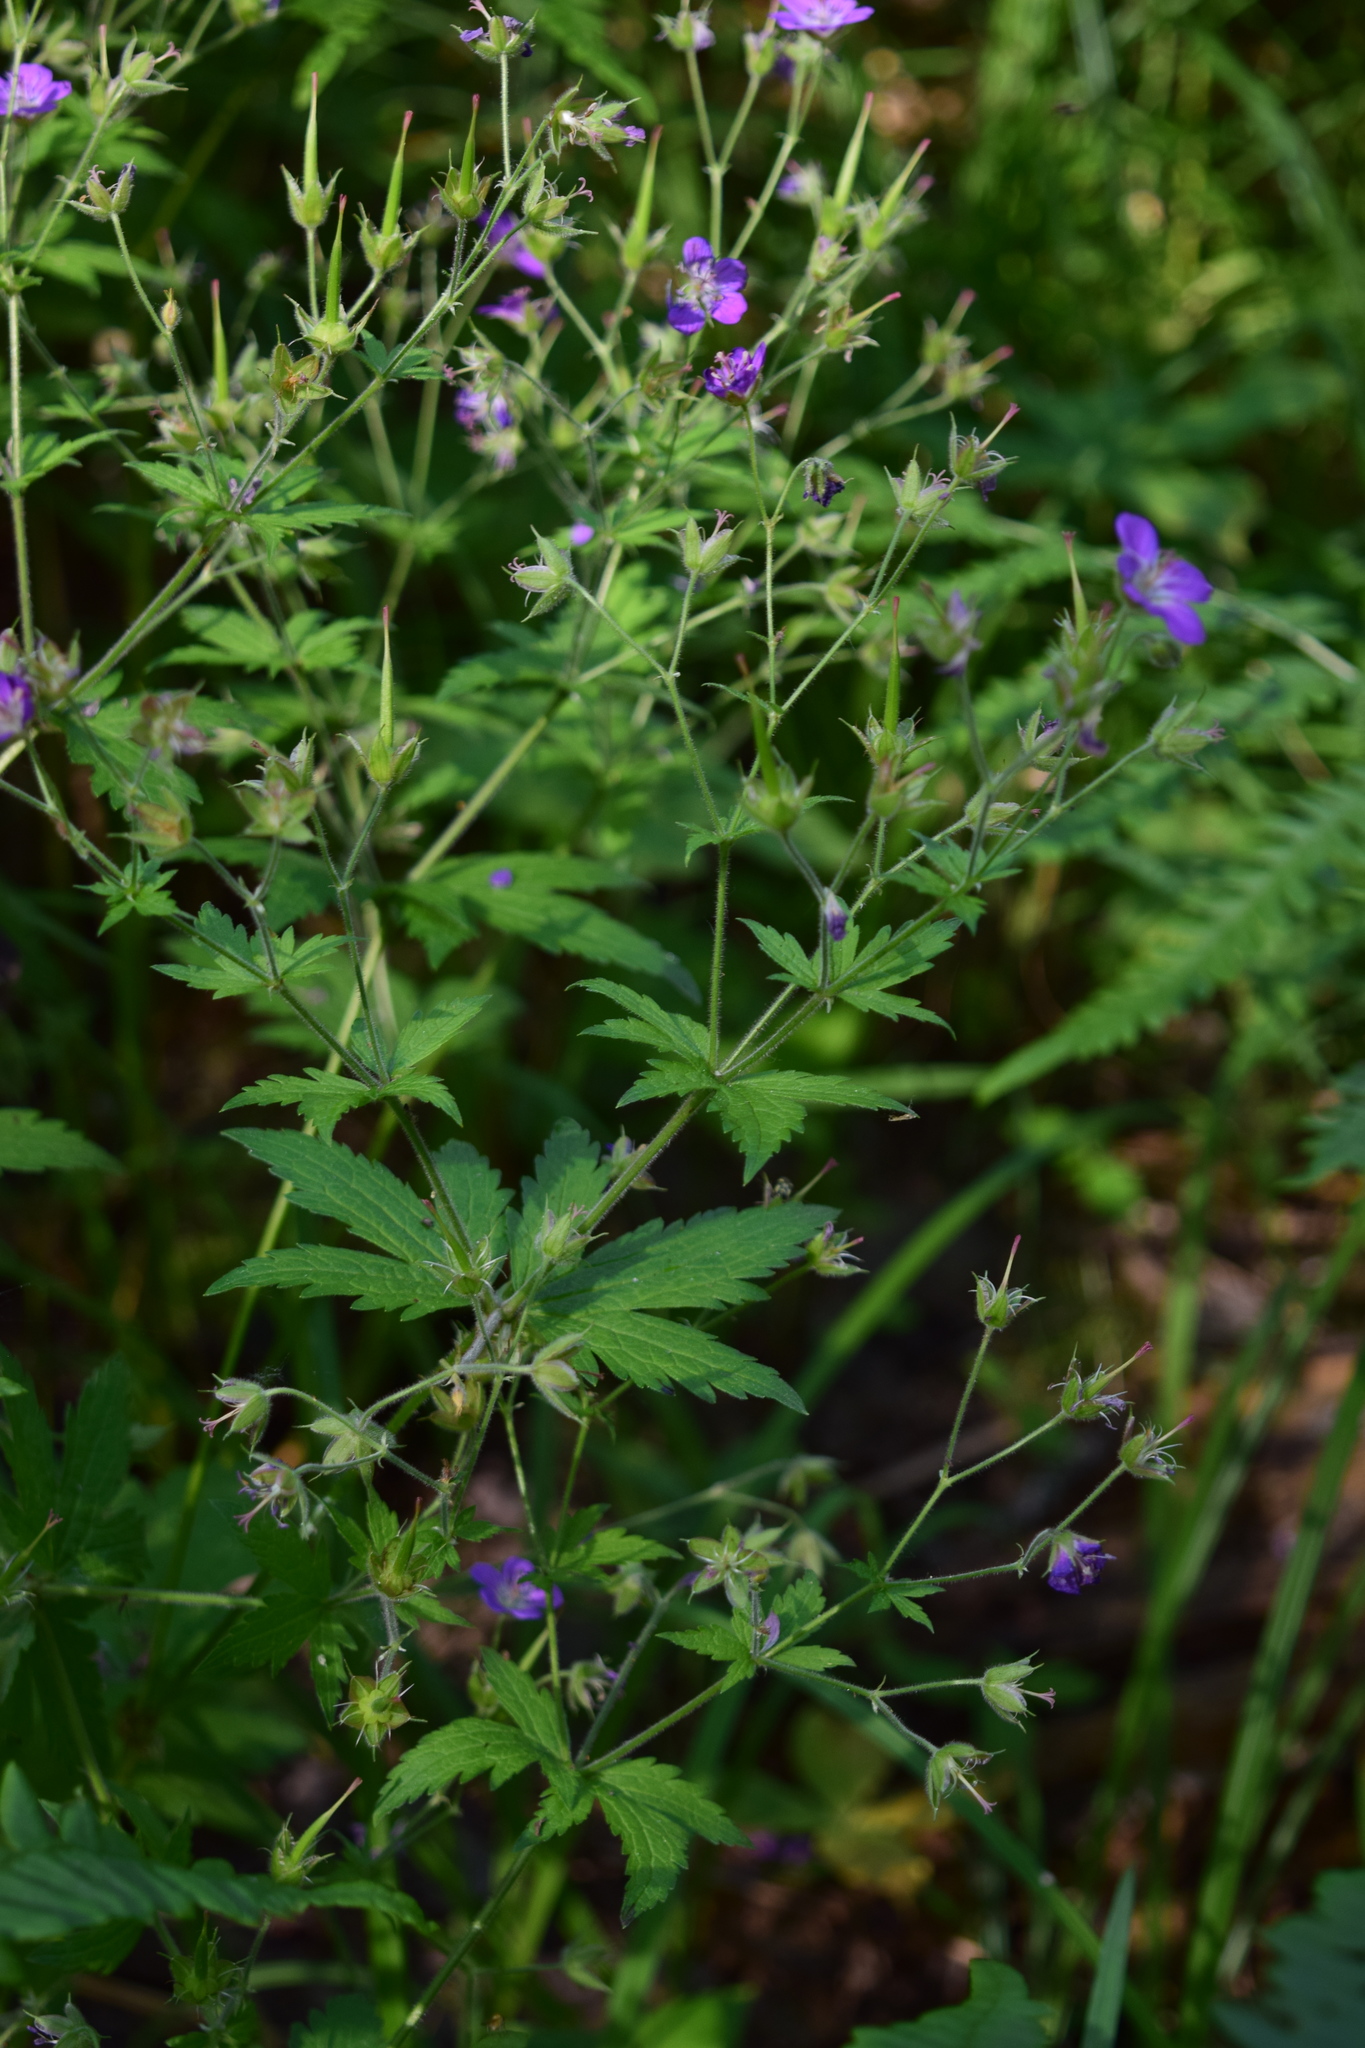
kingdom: Plantae
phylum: Tracheophyta
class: Magnoliopsida
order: Geraniales
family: Geraniaceae
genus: Geranium
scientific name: Geranium sylvaticum
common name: Wood crane's-bill
